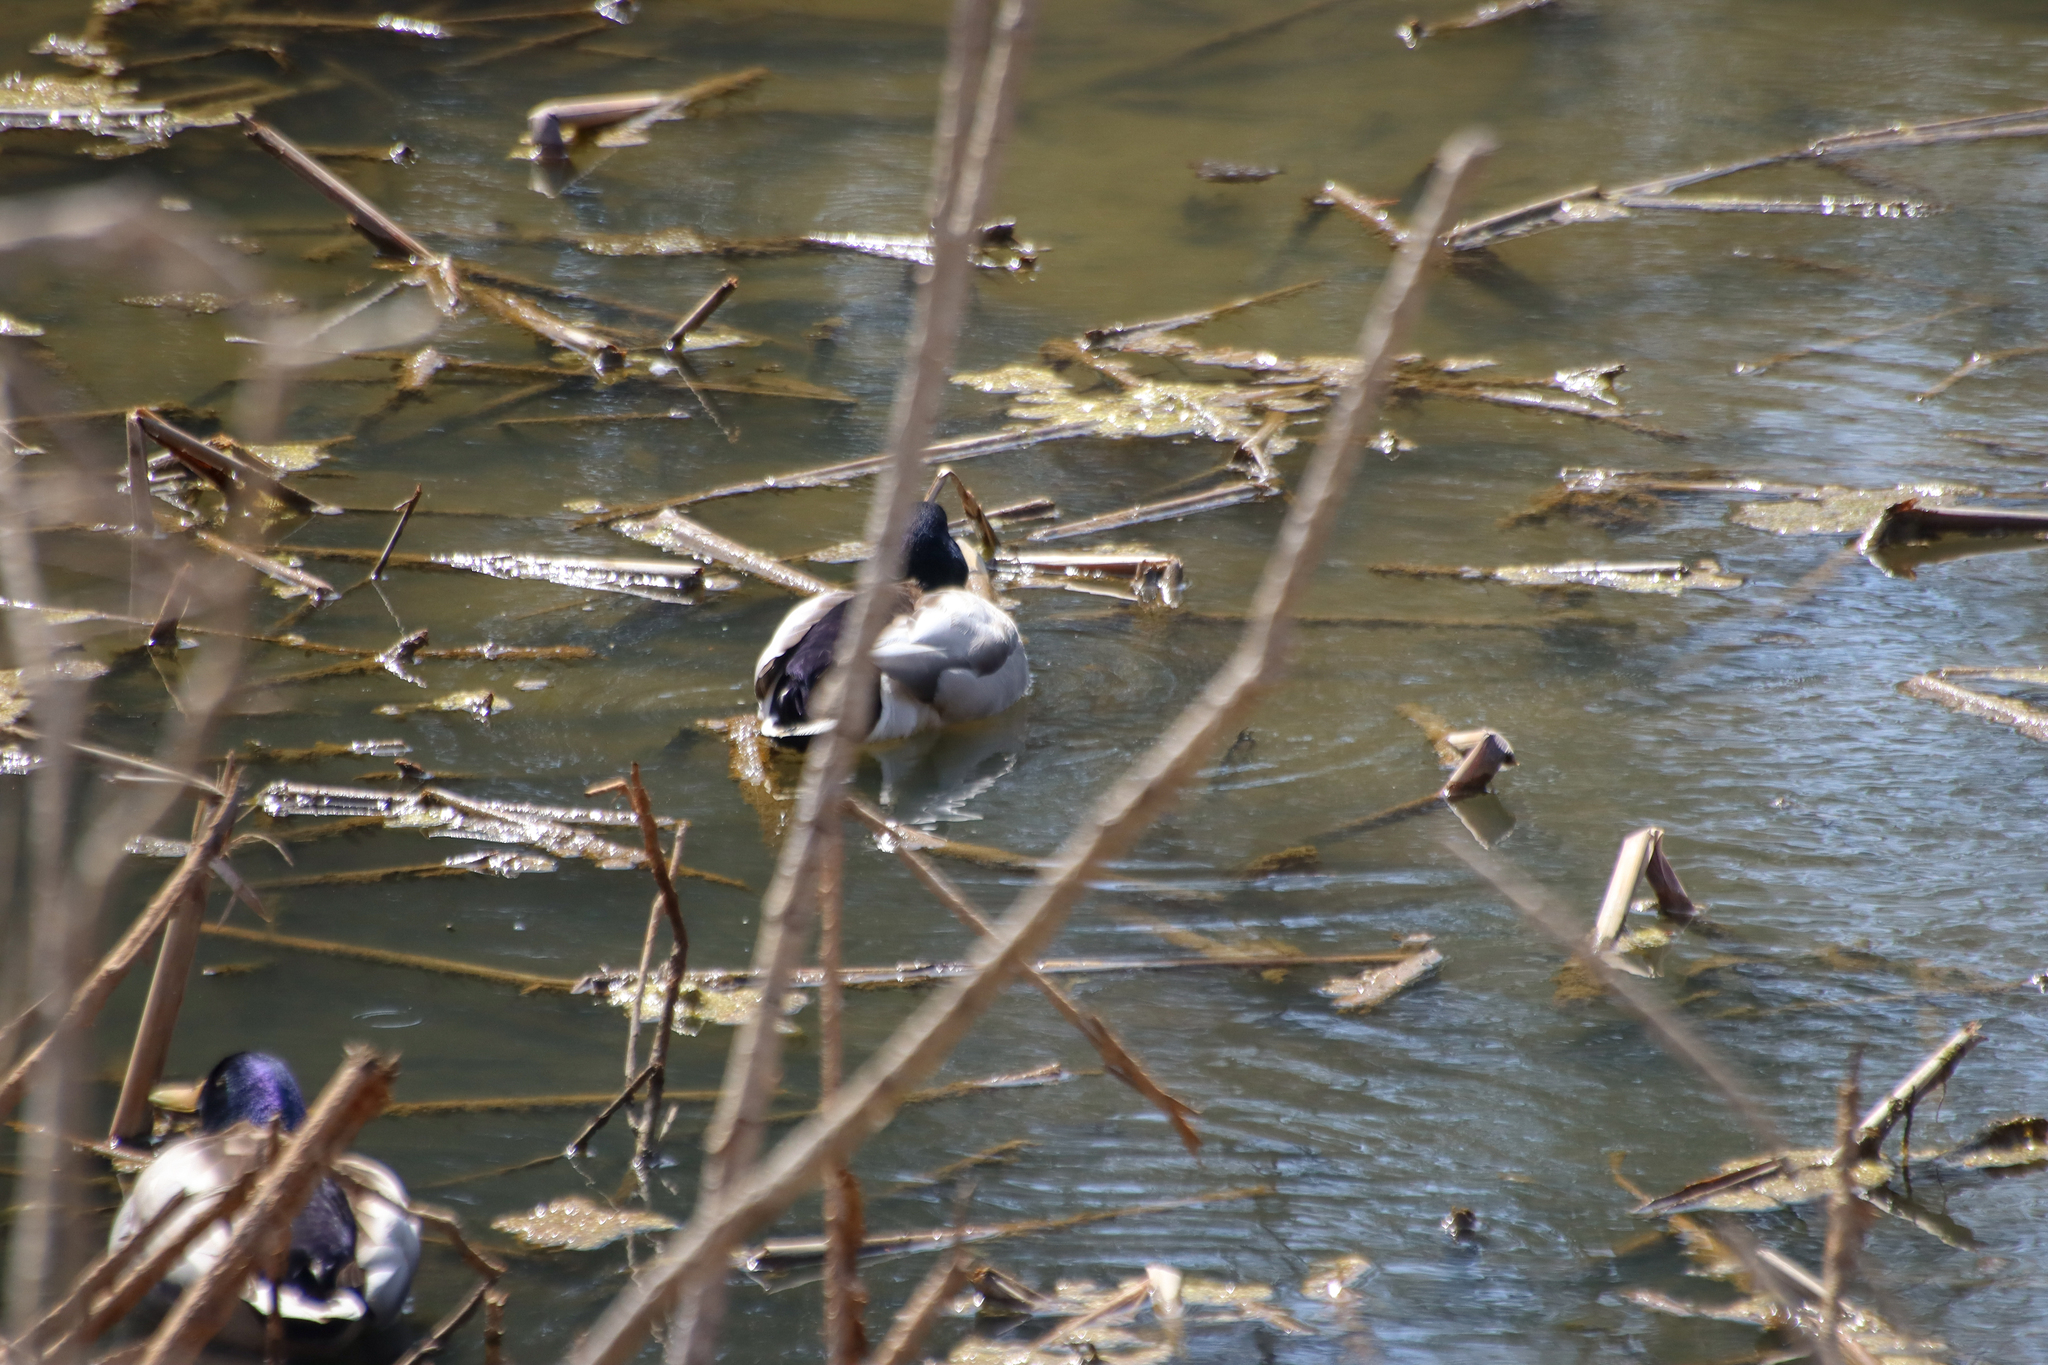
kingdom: Animalia
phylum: Chordata
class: Aves
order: Anseriformes
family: Anatidae
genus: Anas
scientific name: Anas platyrhynchos
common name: Mallard
